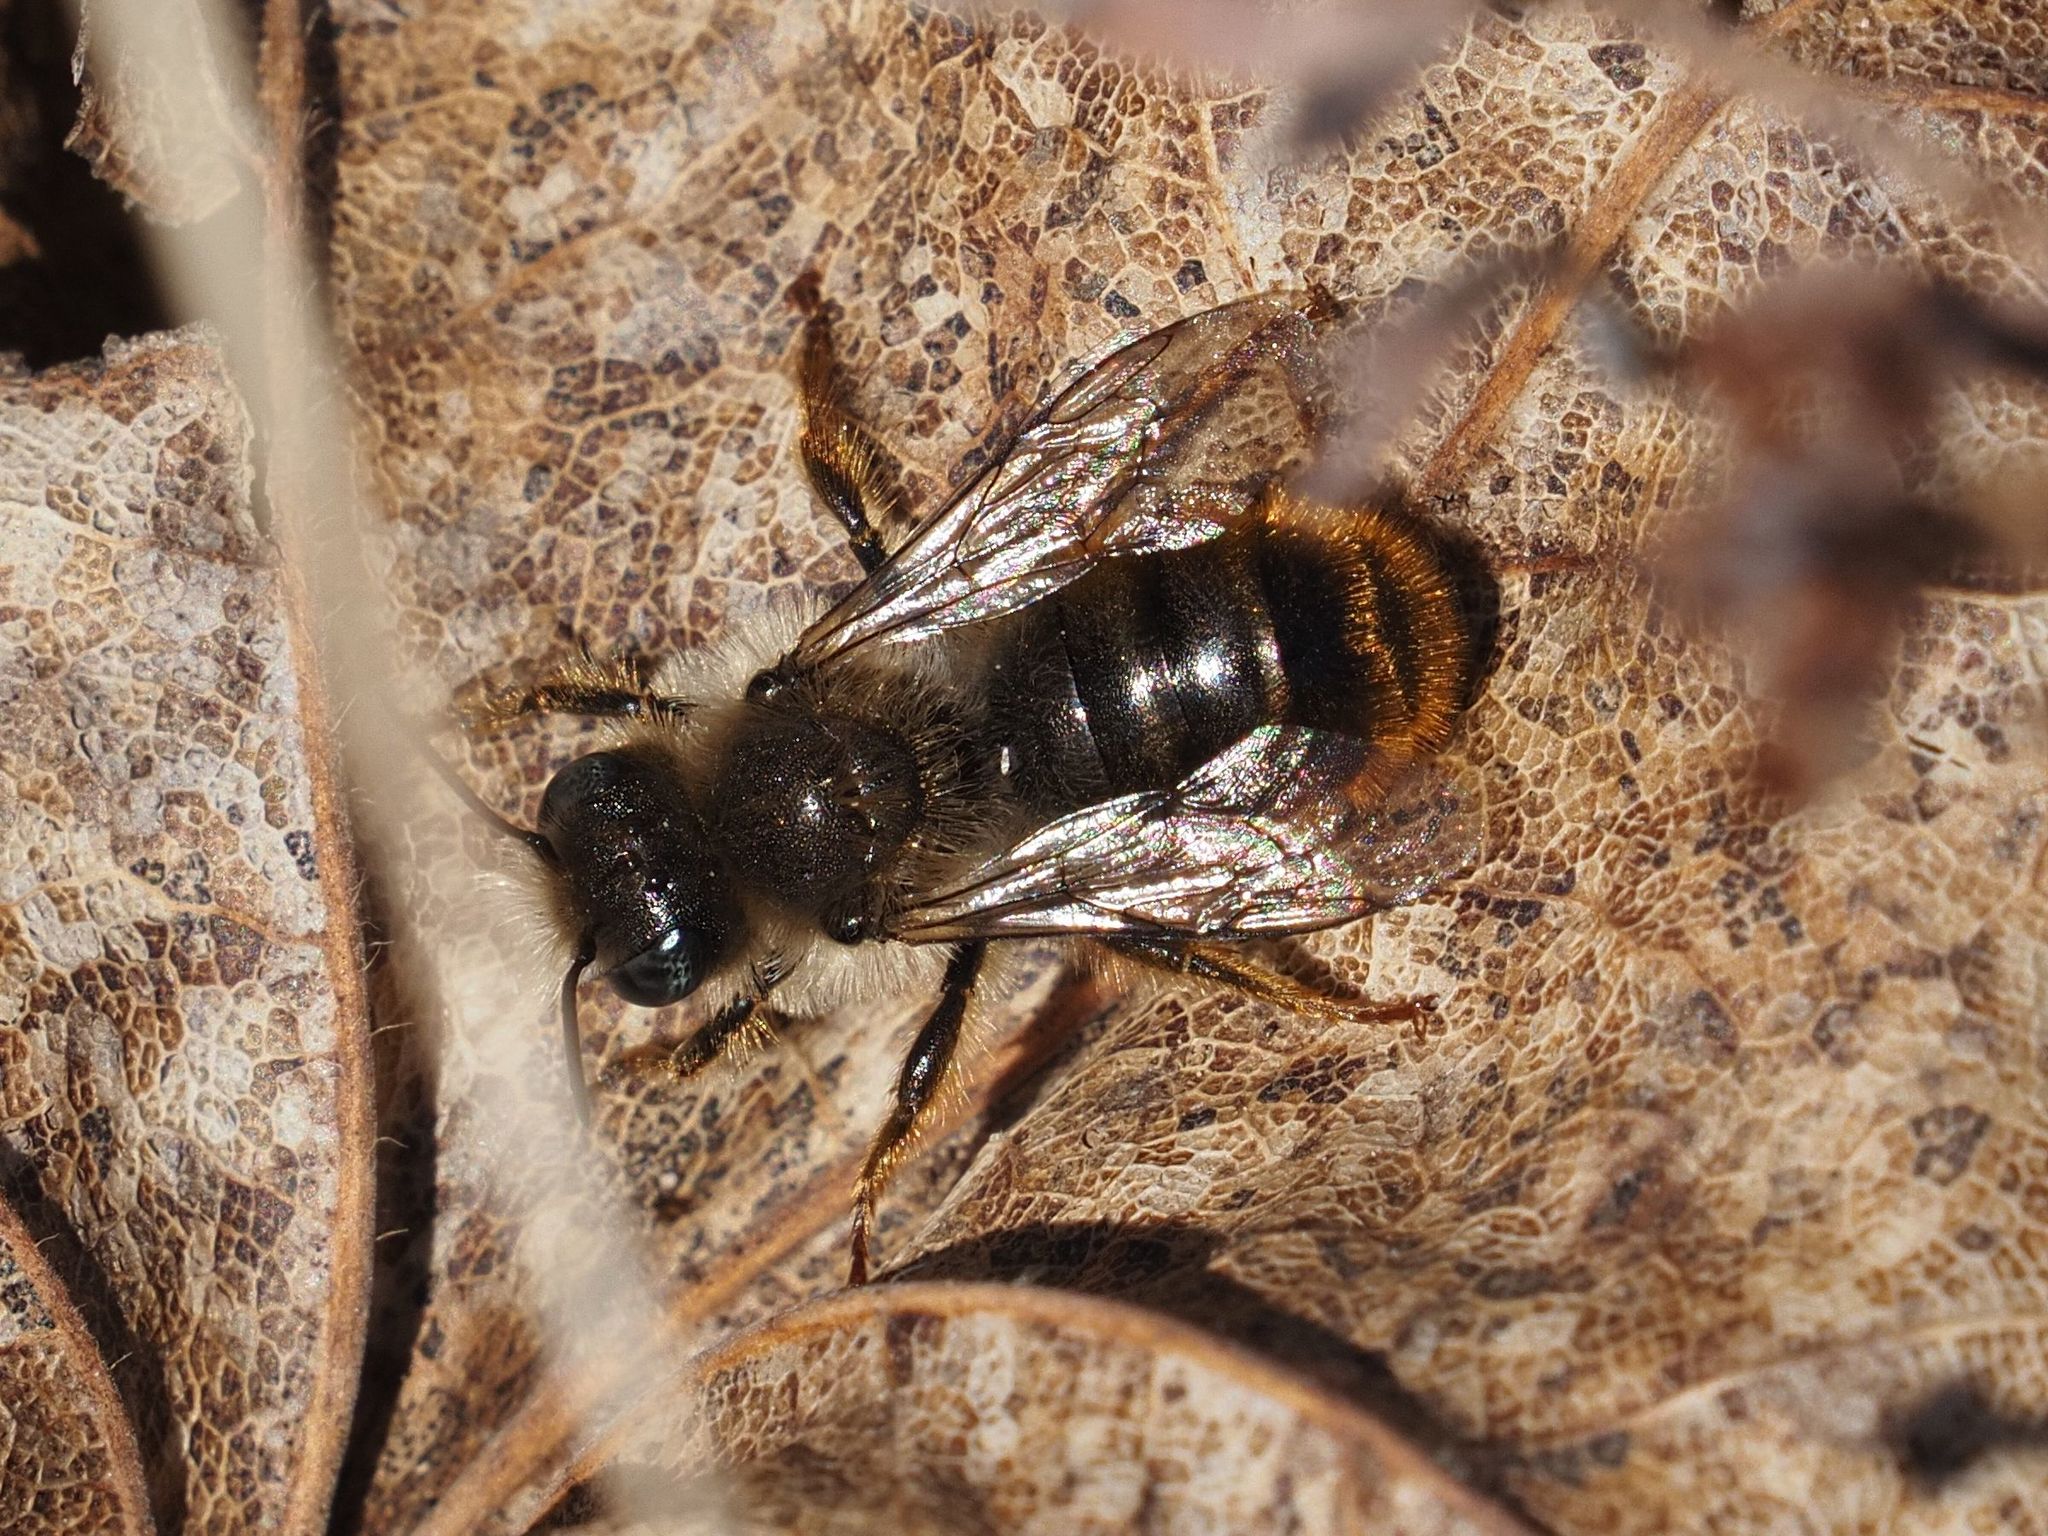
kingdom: Animalia
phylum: Arthropoda
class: Insecta
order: Hymenoptera
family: Megachilidae
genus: Osmia
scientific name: Osmia bicolor
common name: Red-tailed mason bee
